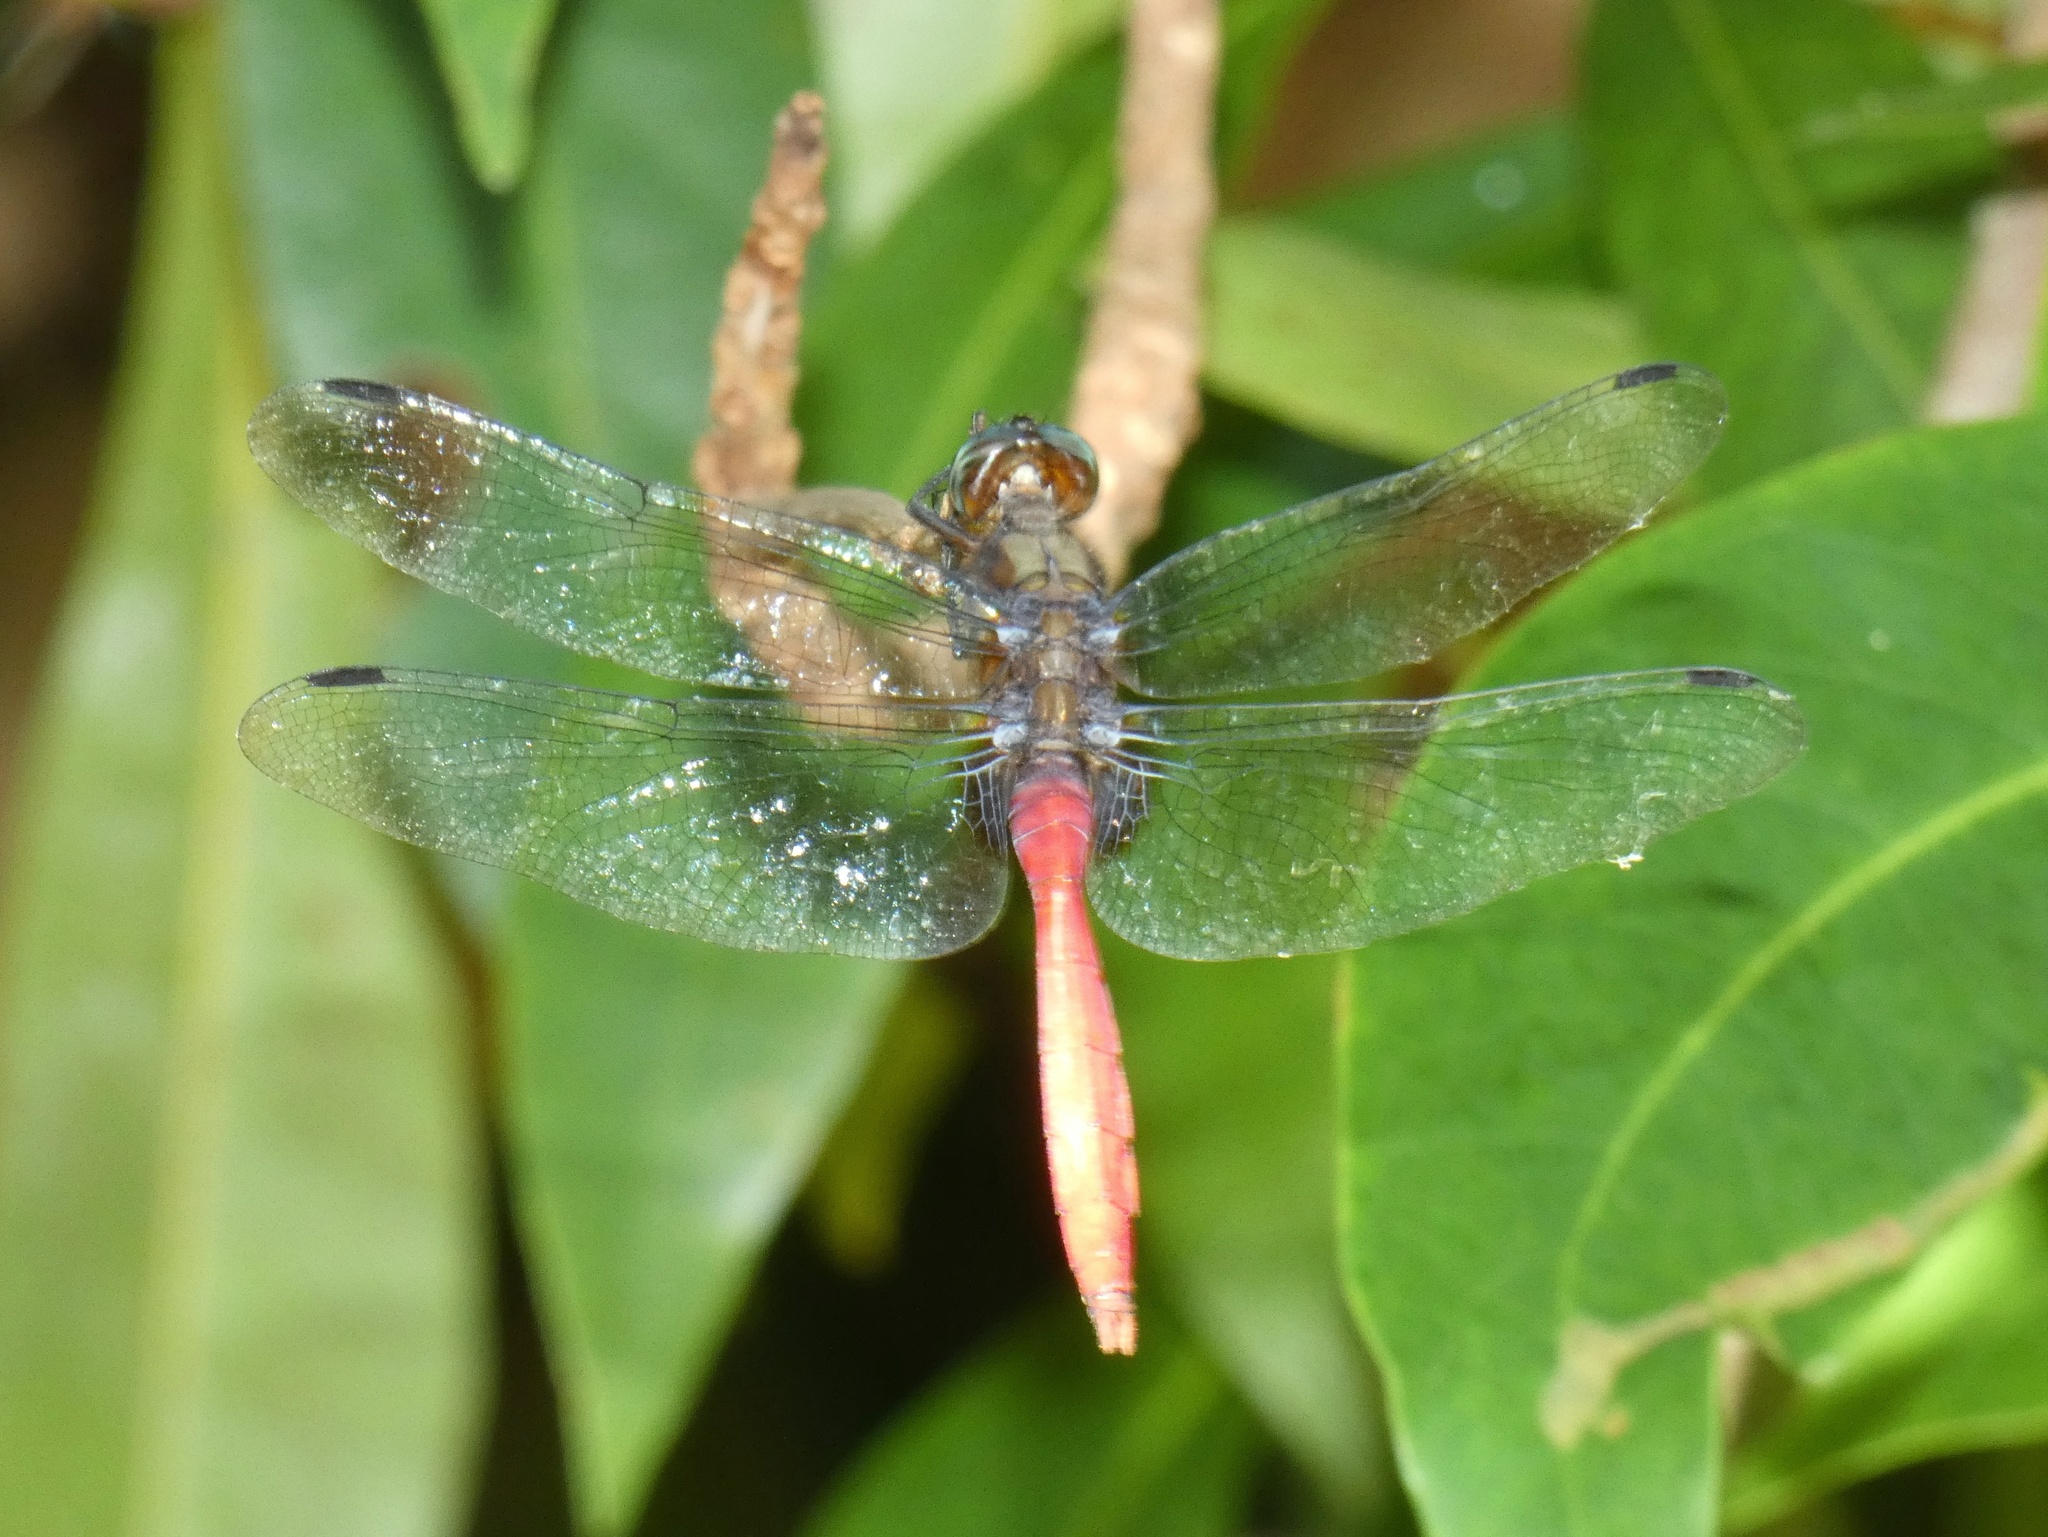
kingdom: Animalia
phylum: Arthropoda
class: Insecta
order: Odonata
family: Libellulidae
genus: Orthetrum
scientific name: Orthetrum villosovittatum
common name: Firery skimmer
